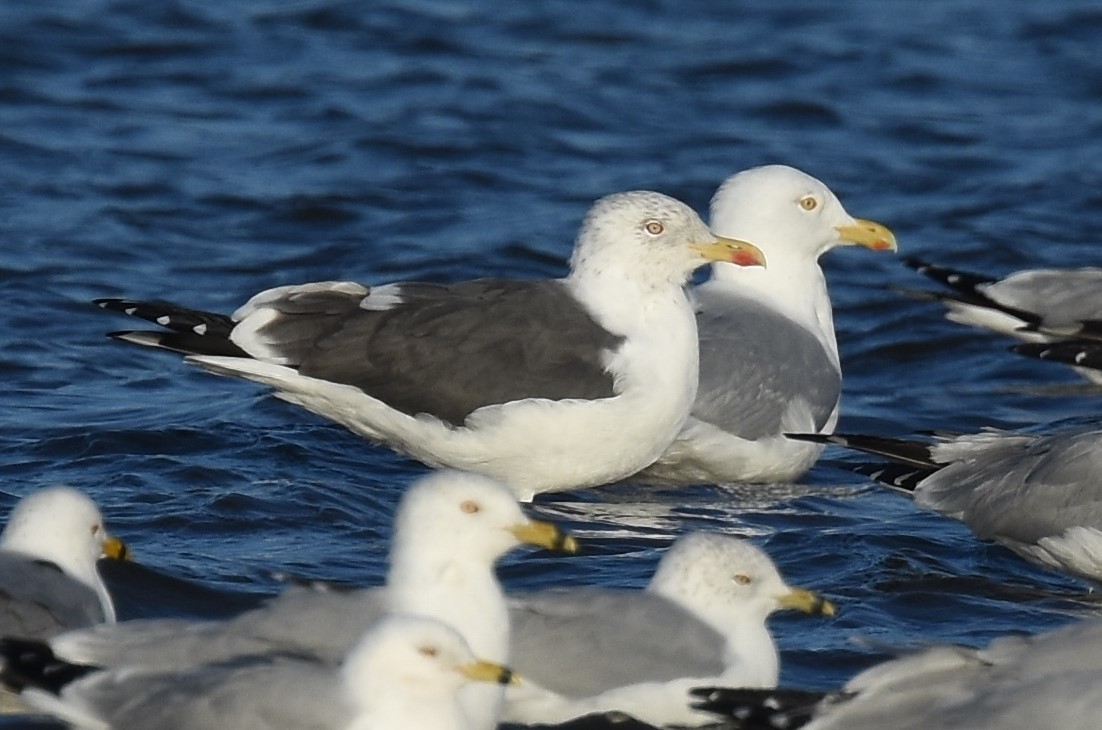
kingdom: Animalia
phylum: Chordata
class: Aves
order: Charadriiformes
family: Laridae
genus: Larus
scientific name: Larus fuscus
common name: Lesser black-backed gull
